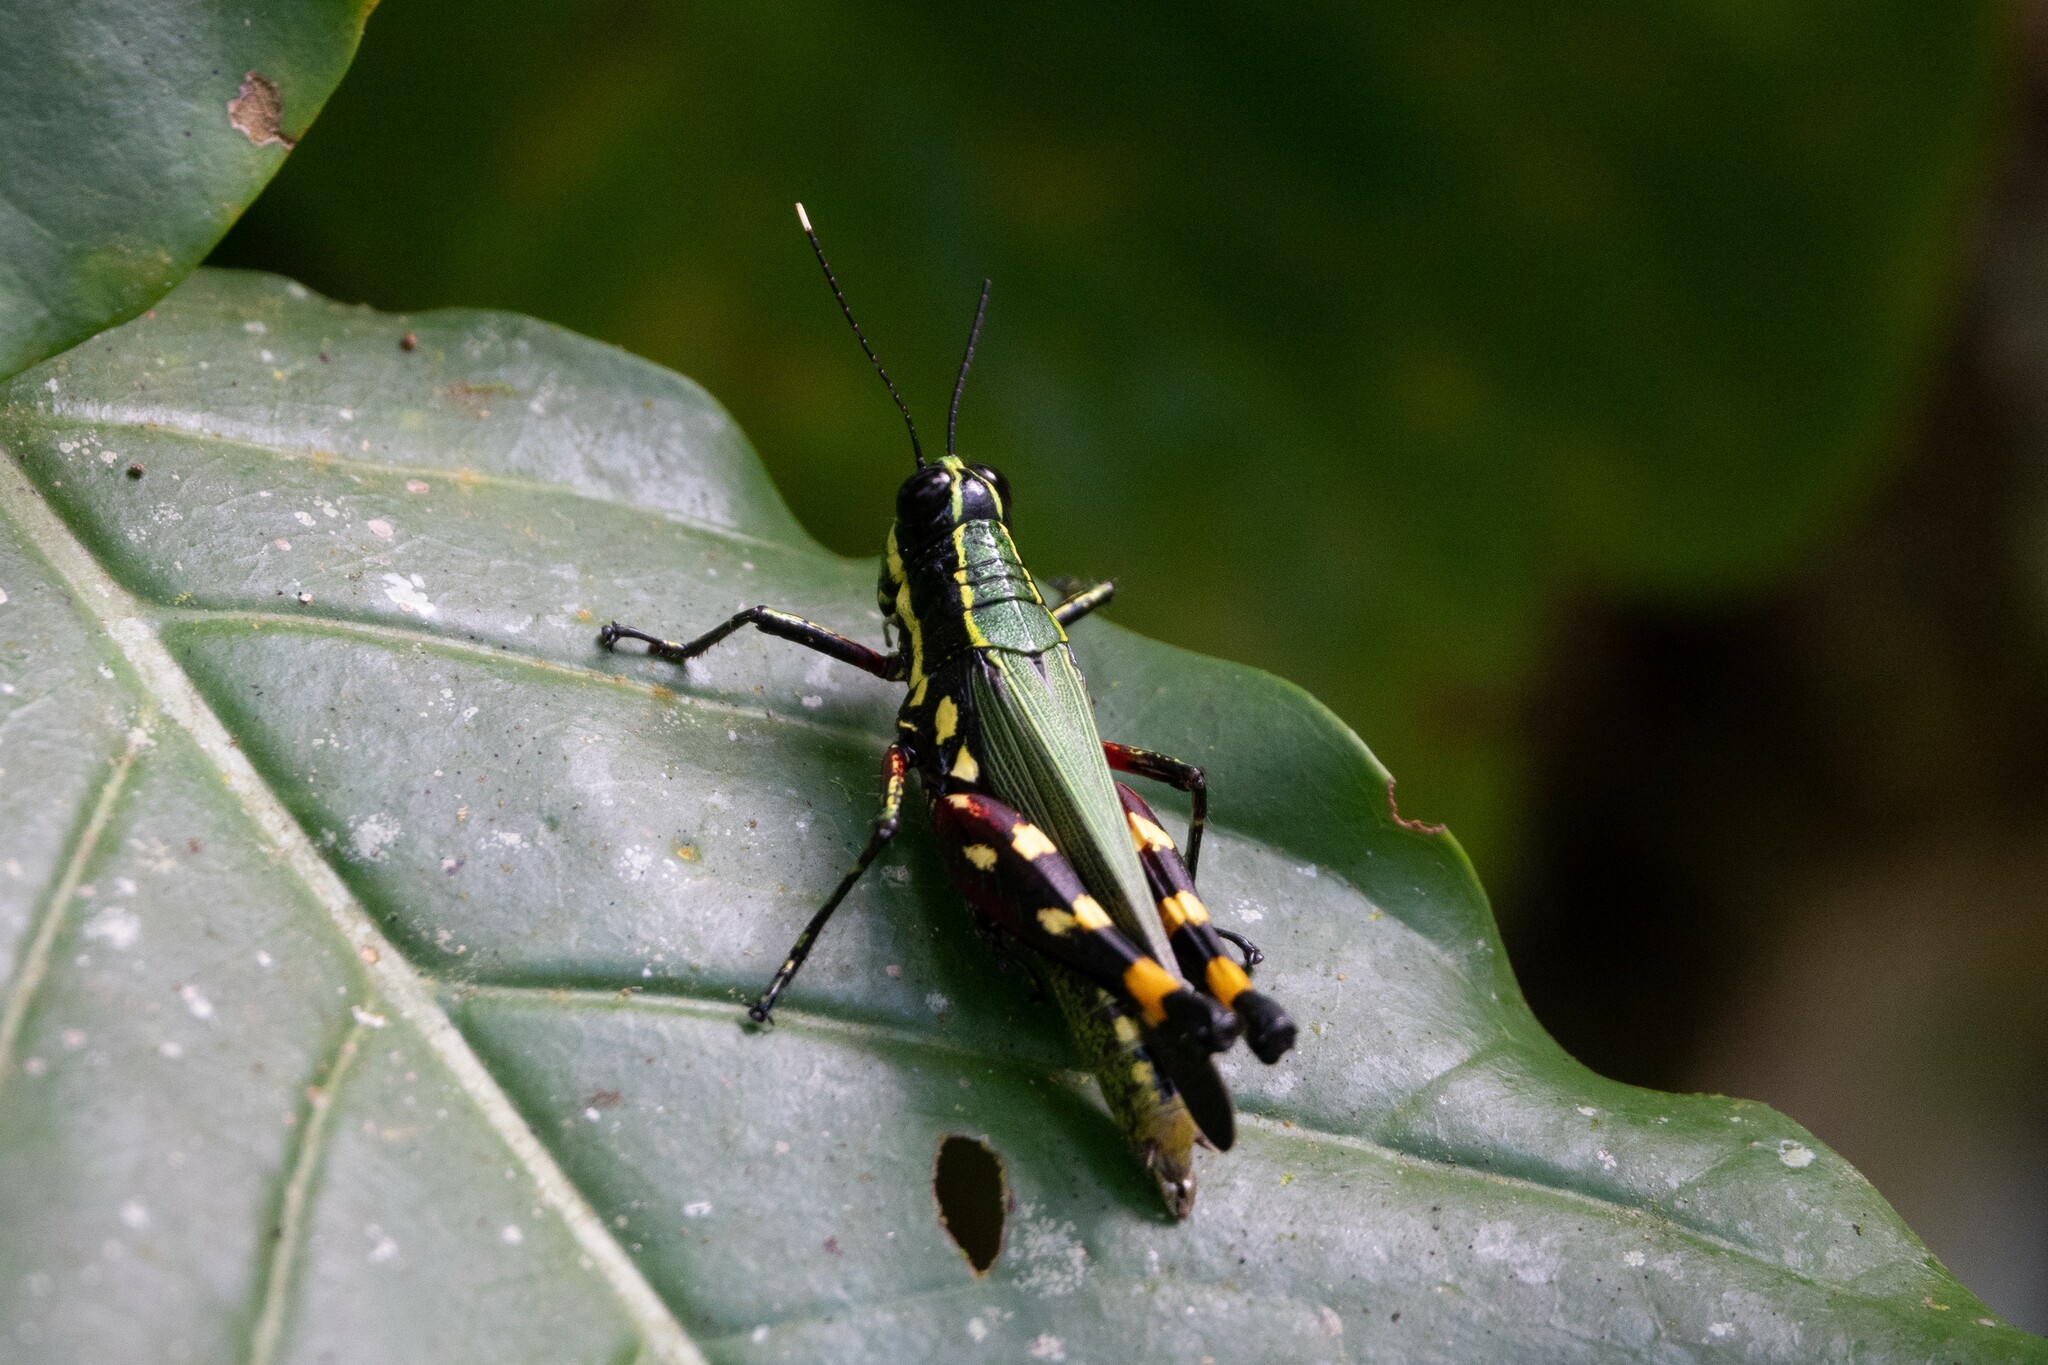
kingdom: Animalia
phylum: Arthropoda
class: Insecta
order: Orthoptera
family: Acrididae
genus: Tetrataenia
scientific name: Tetrataenia surinama
